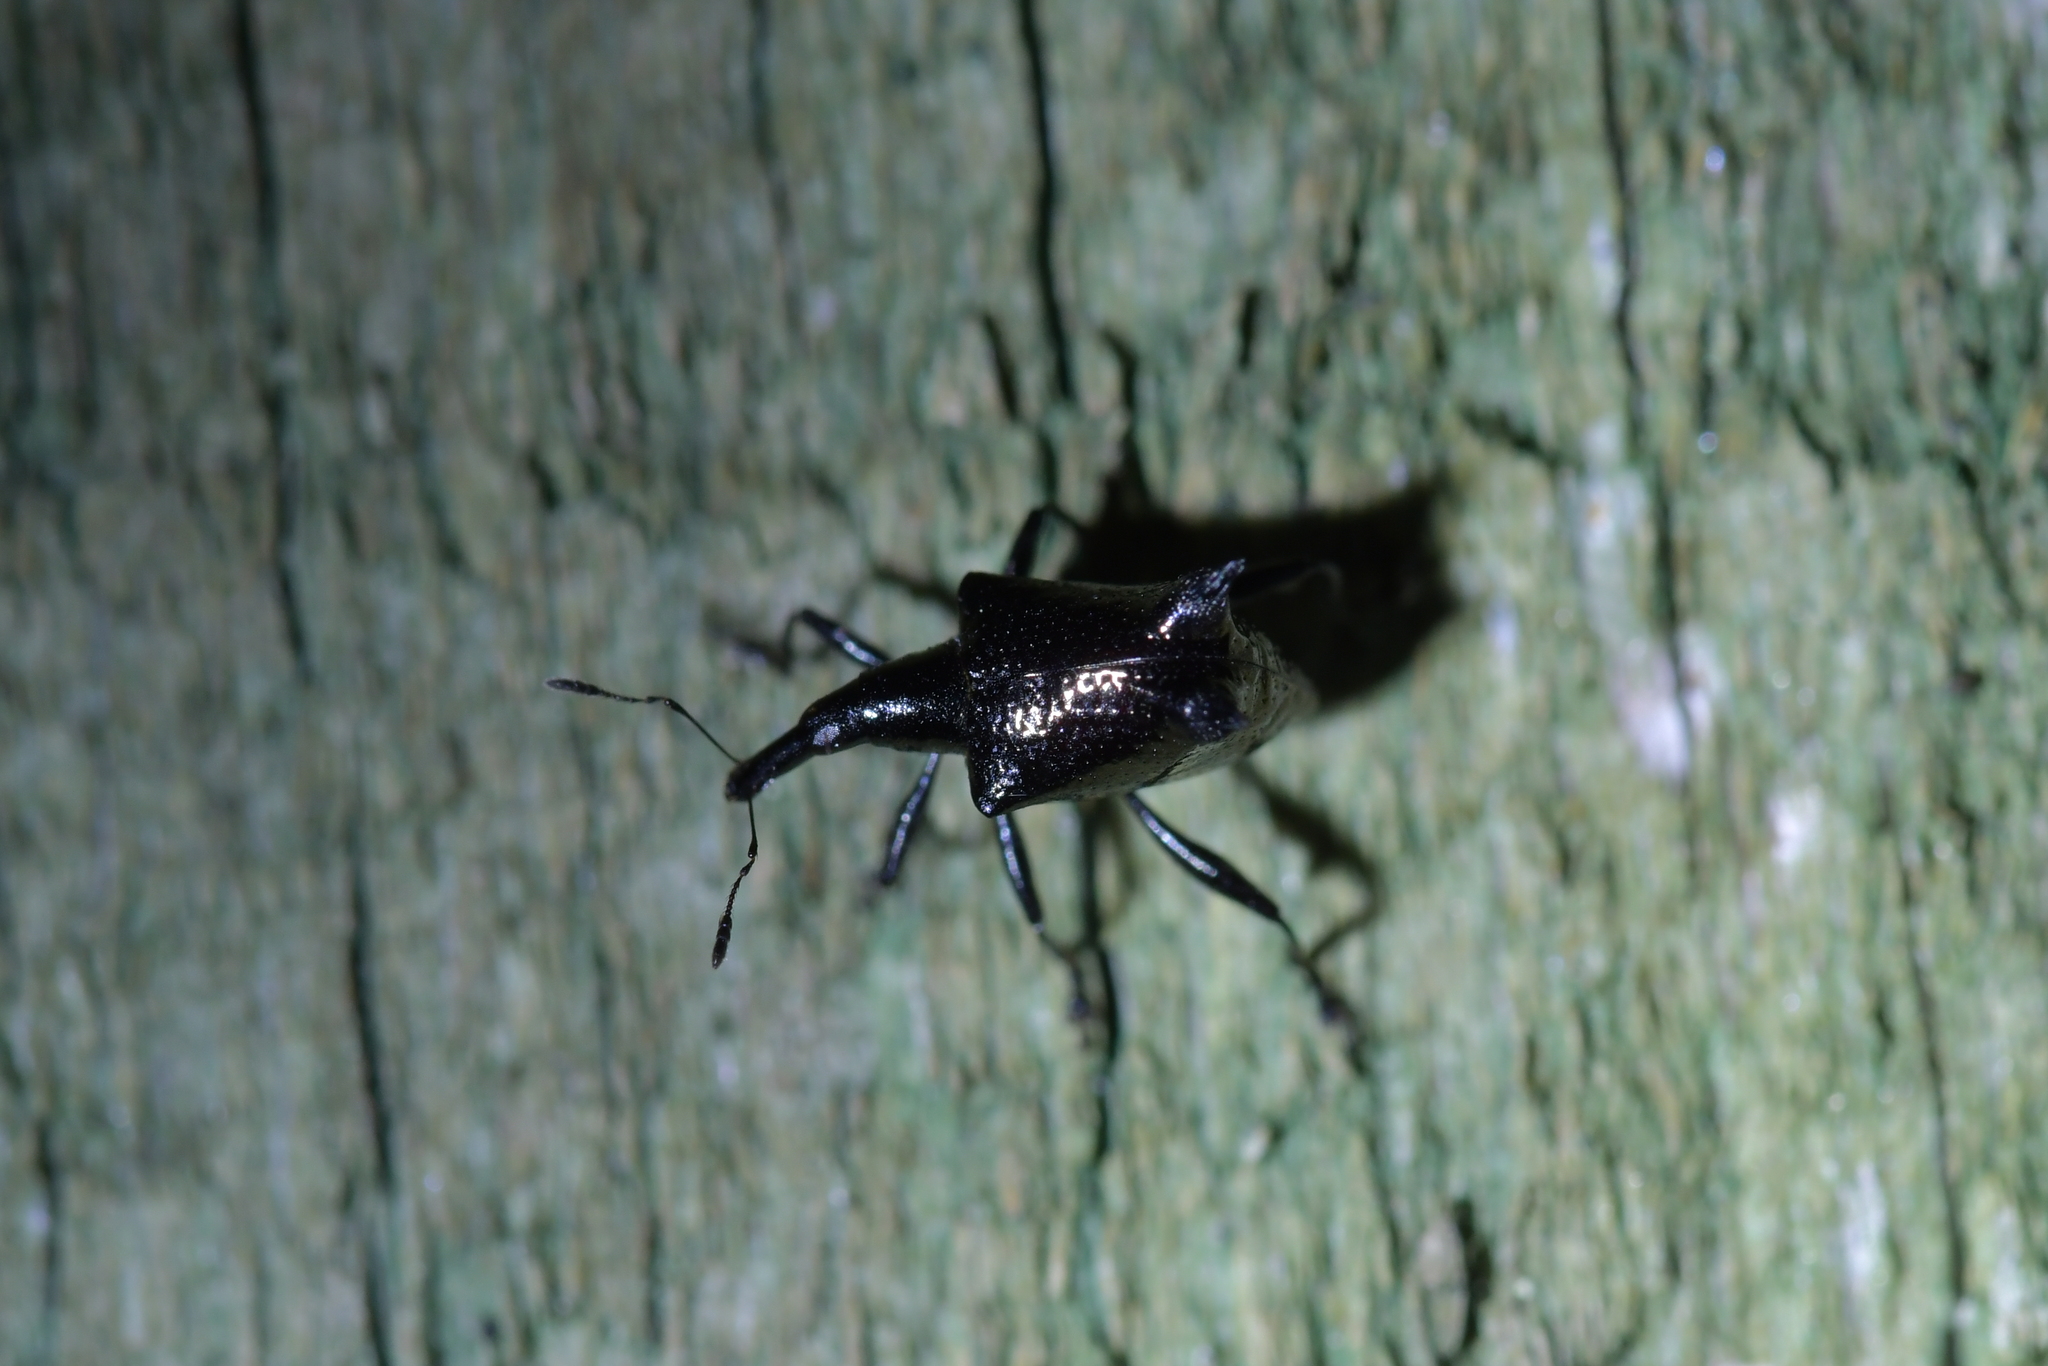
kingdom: Animalia
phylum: Arthropoda
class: Insecta
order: Coleoptera
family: Curculionidae
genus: Scolopterus
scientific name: Scolopterus penicillatus
